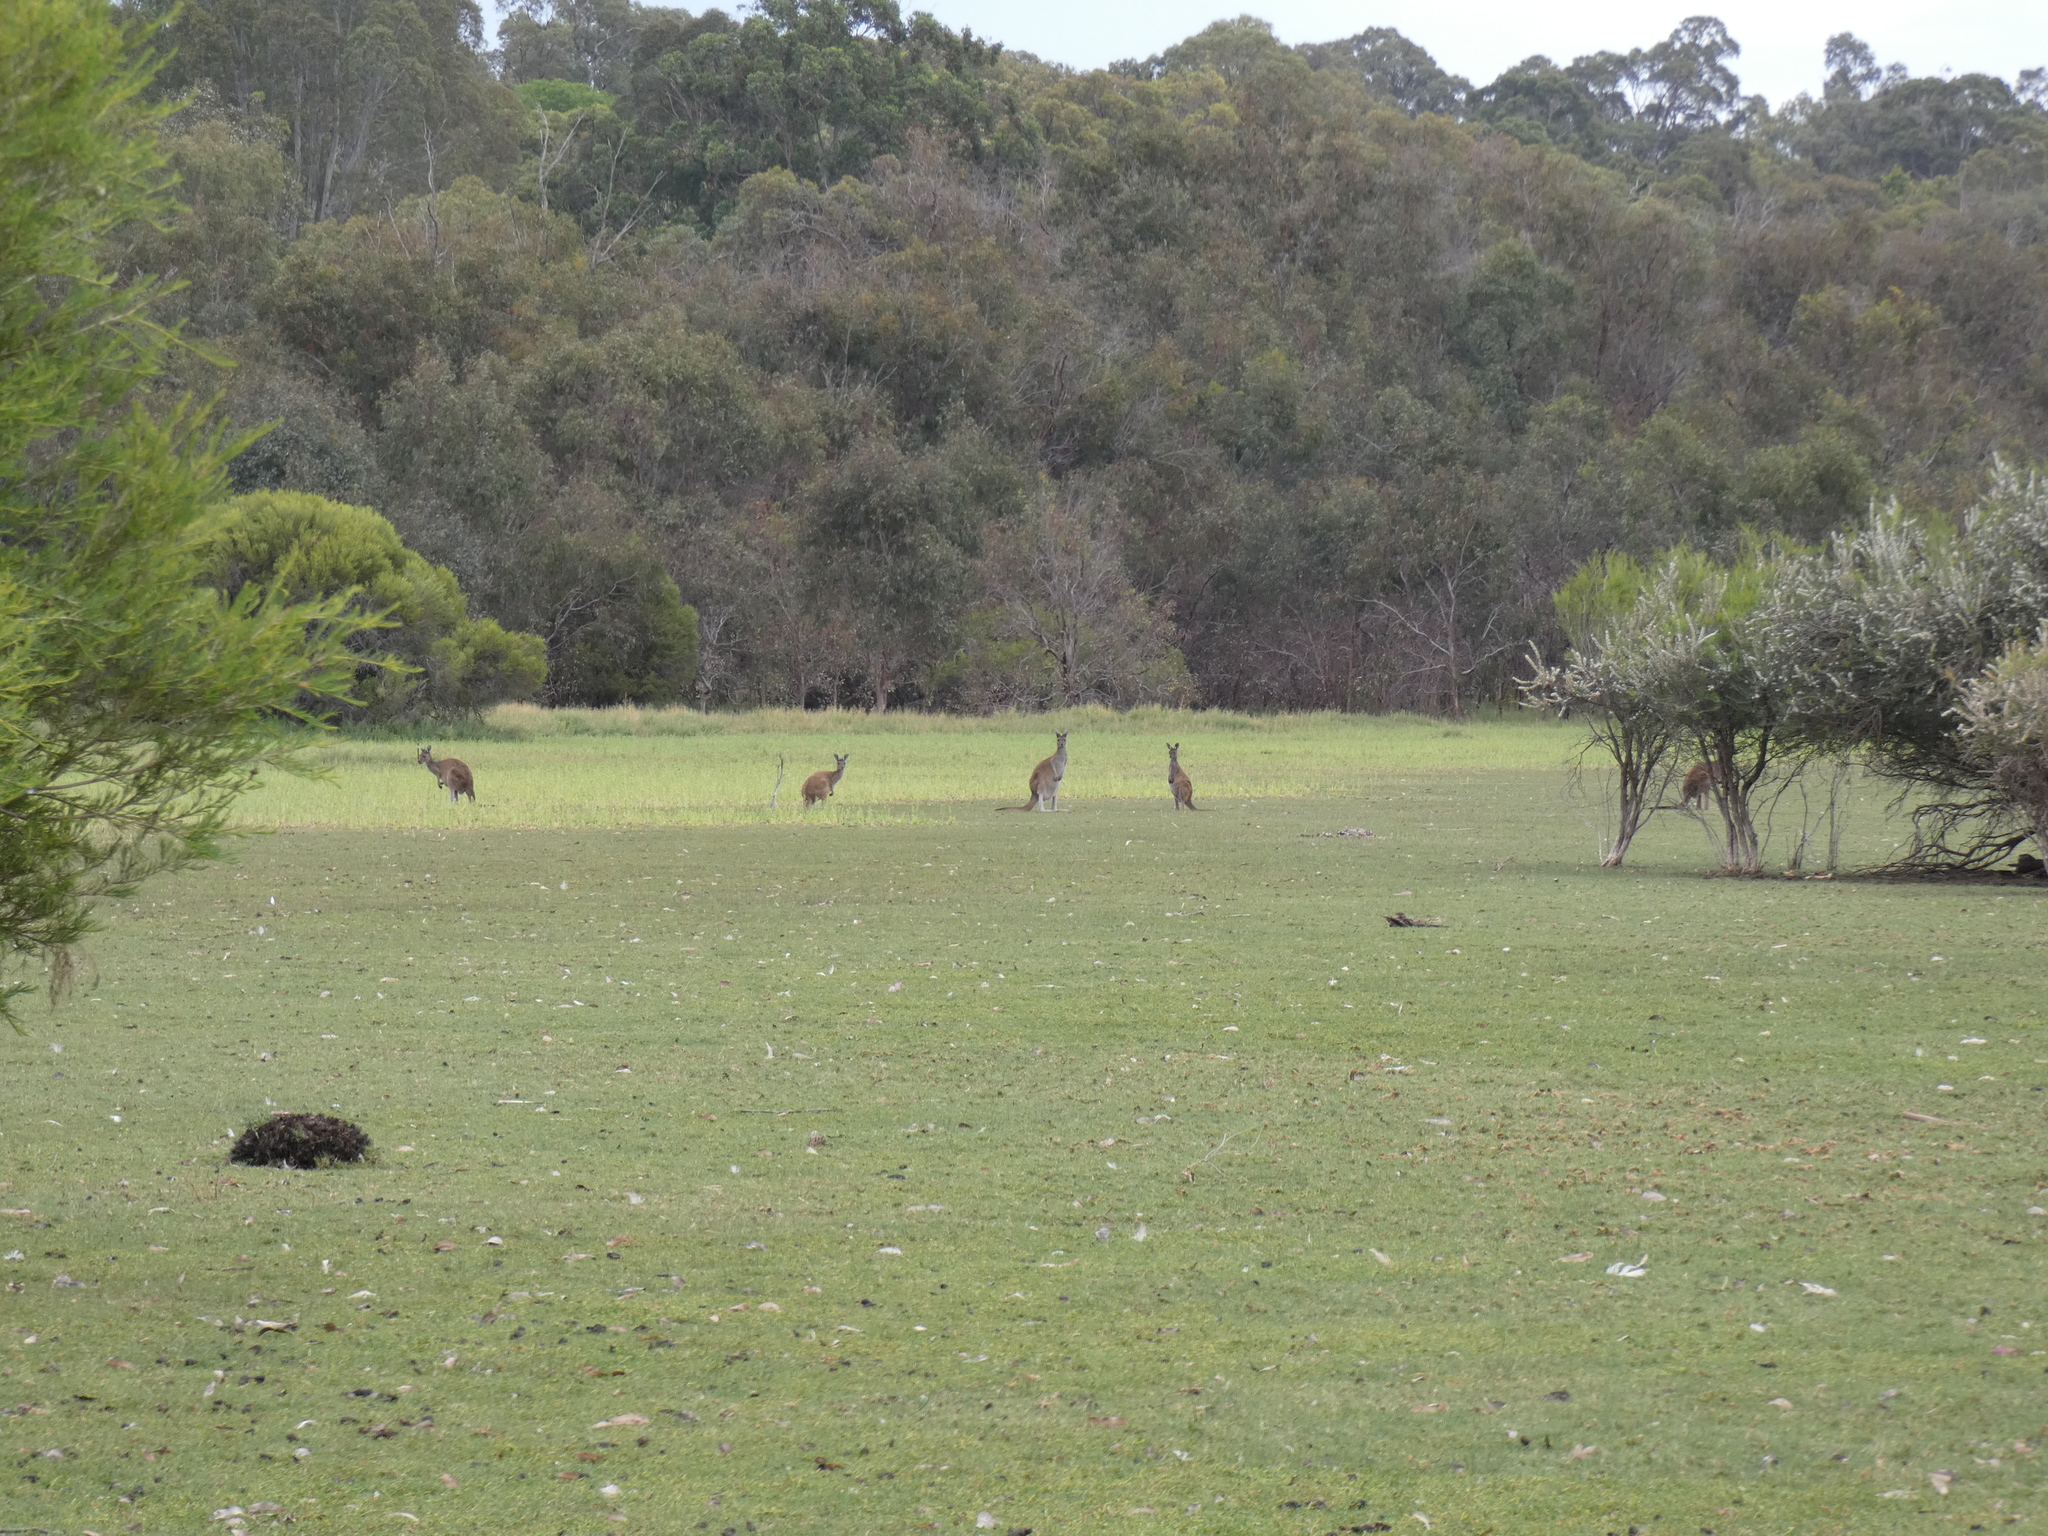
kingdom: Animalia
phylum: Chordata
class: Mammalia
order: Diprotodontia
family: Macropodidae
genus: Macropus
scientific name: Macropus fuliginosus
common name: Western grey kangaroo
